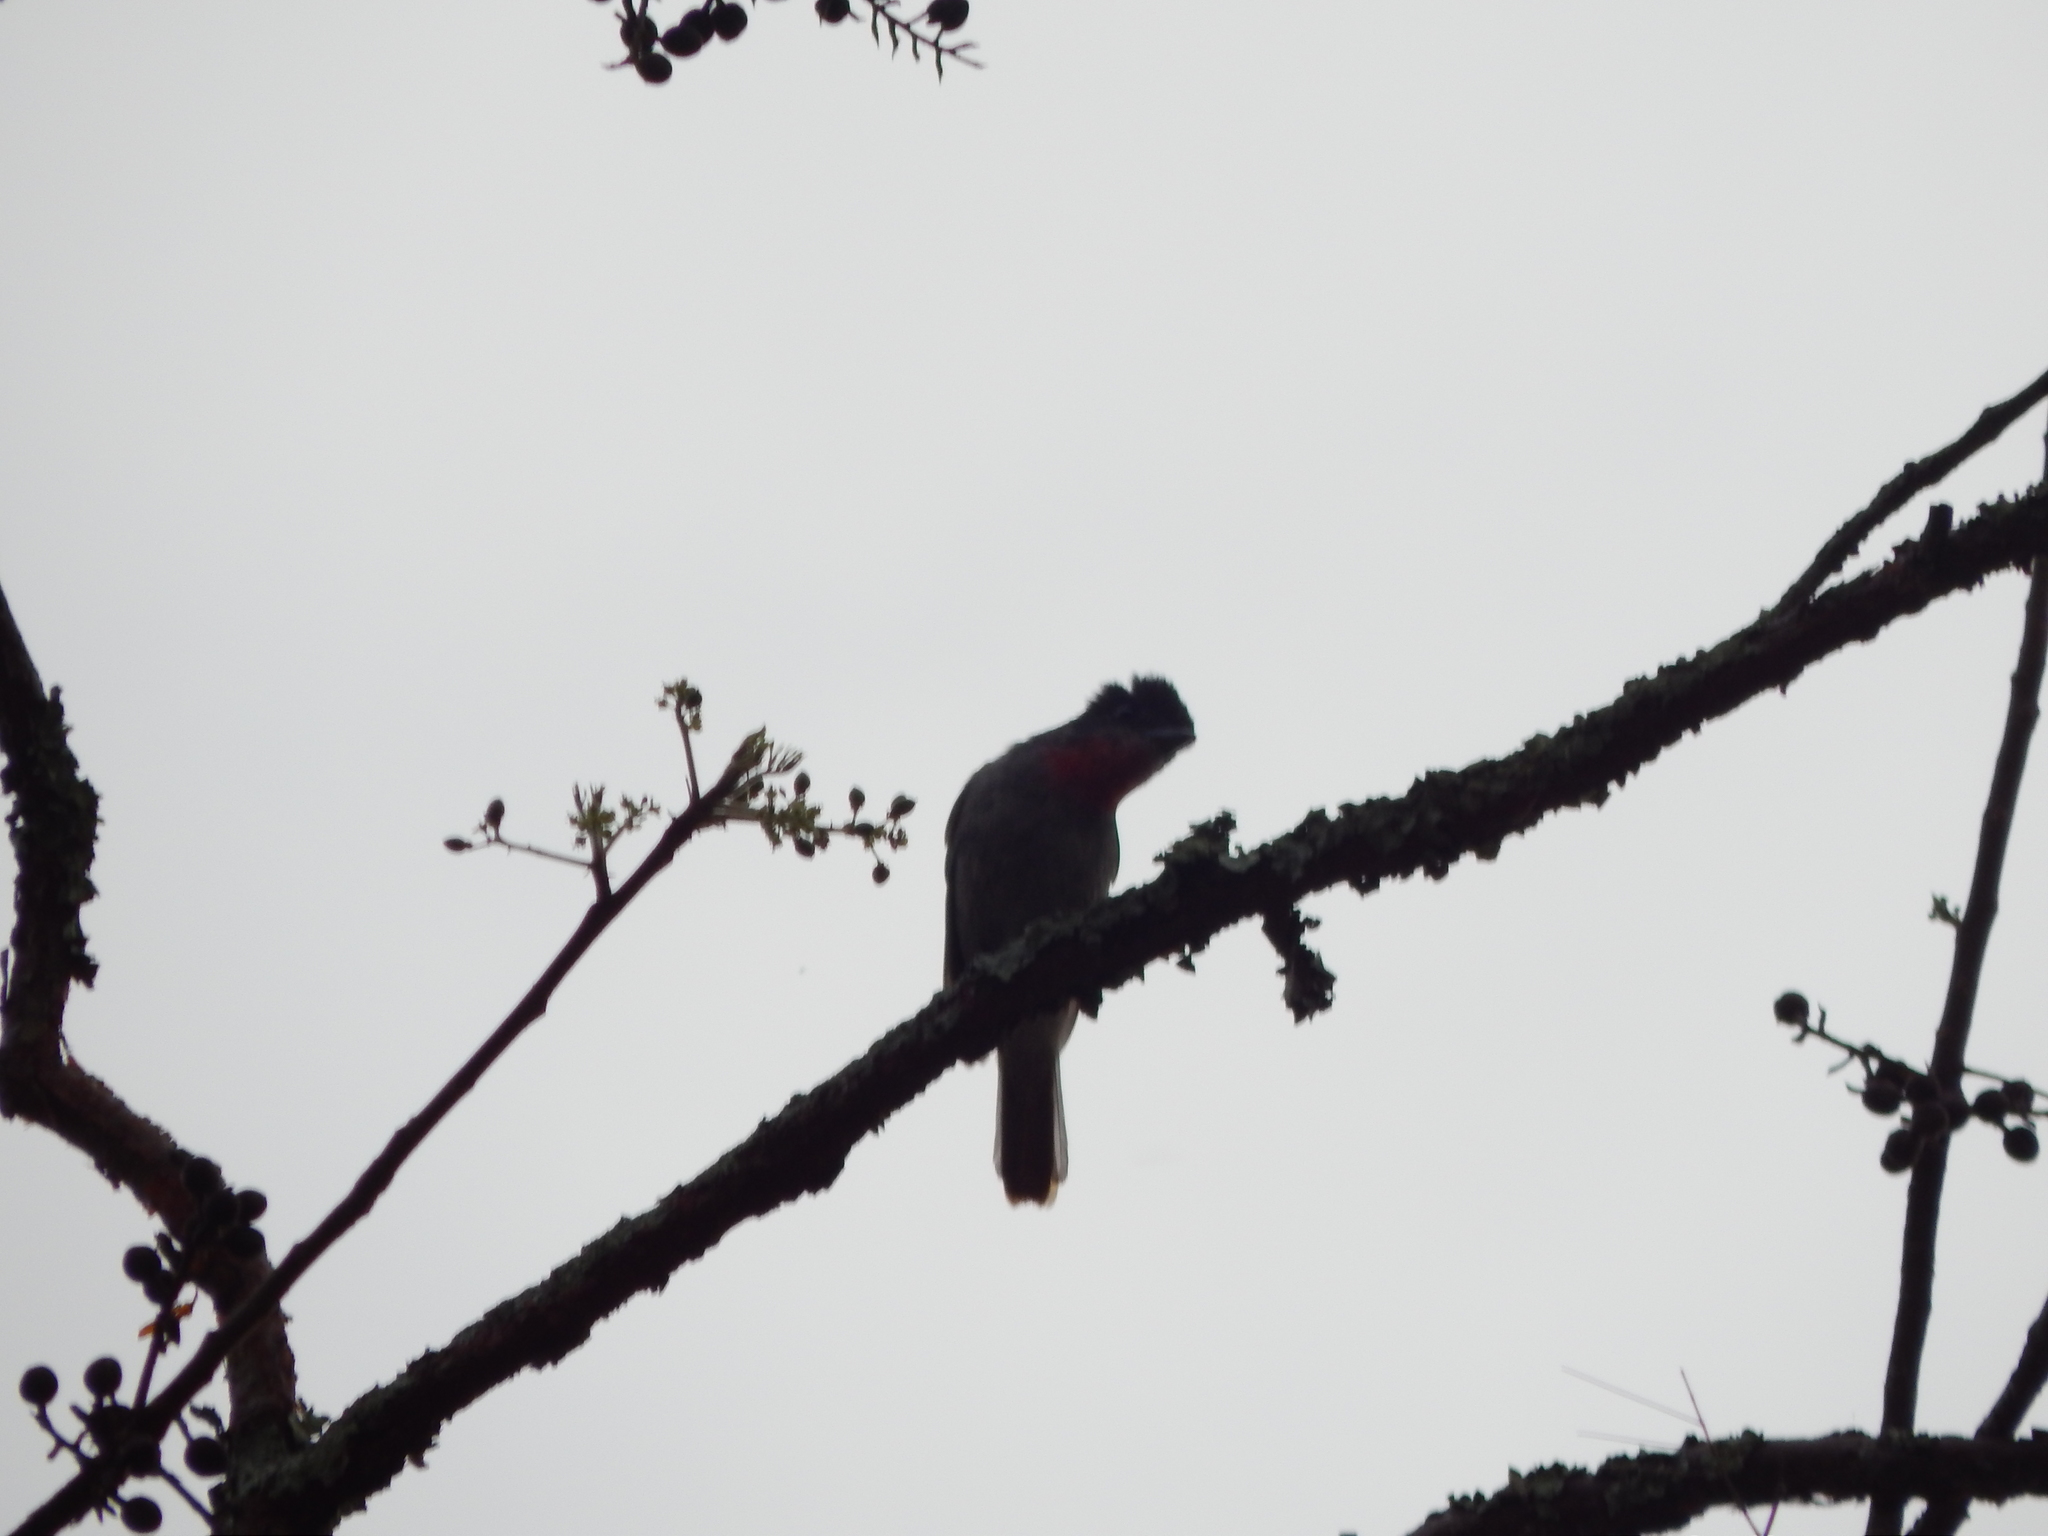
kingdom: Animalia
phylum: Chordata
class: Aves
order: Passeriformes
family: Cotingidae
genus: Pachyramphus
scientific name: Pachyramphus aglaiae
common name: Rose-throated becard
